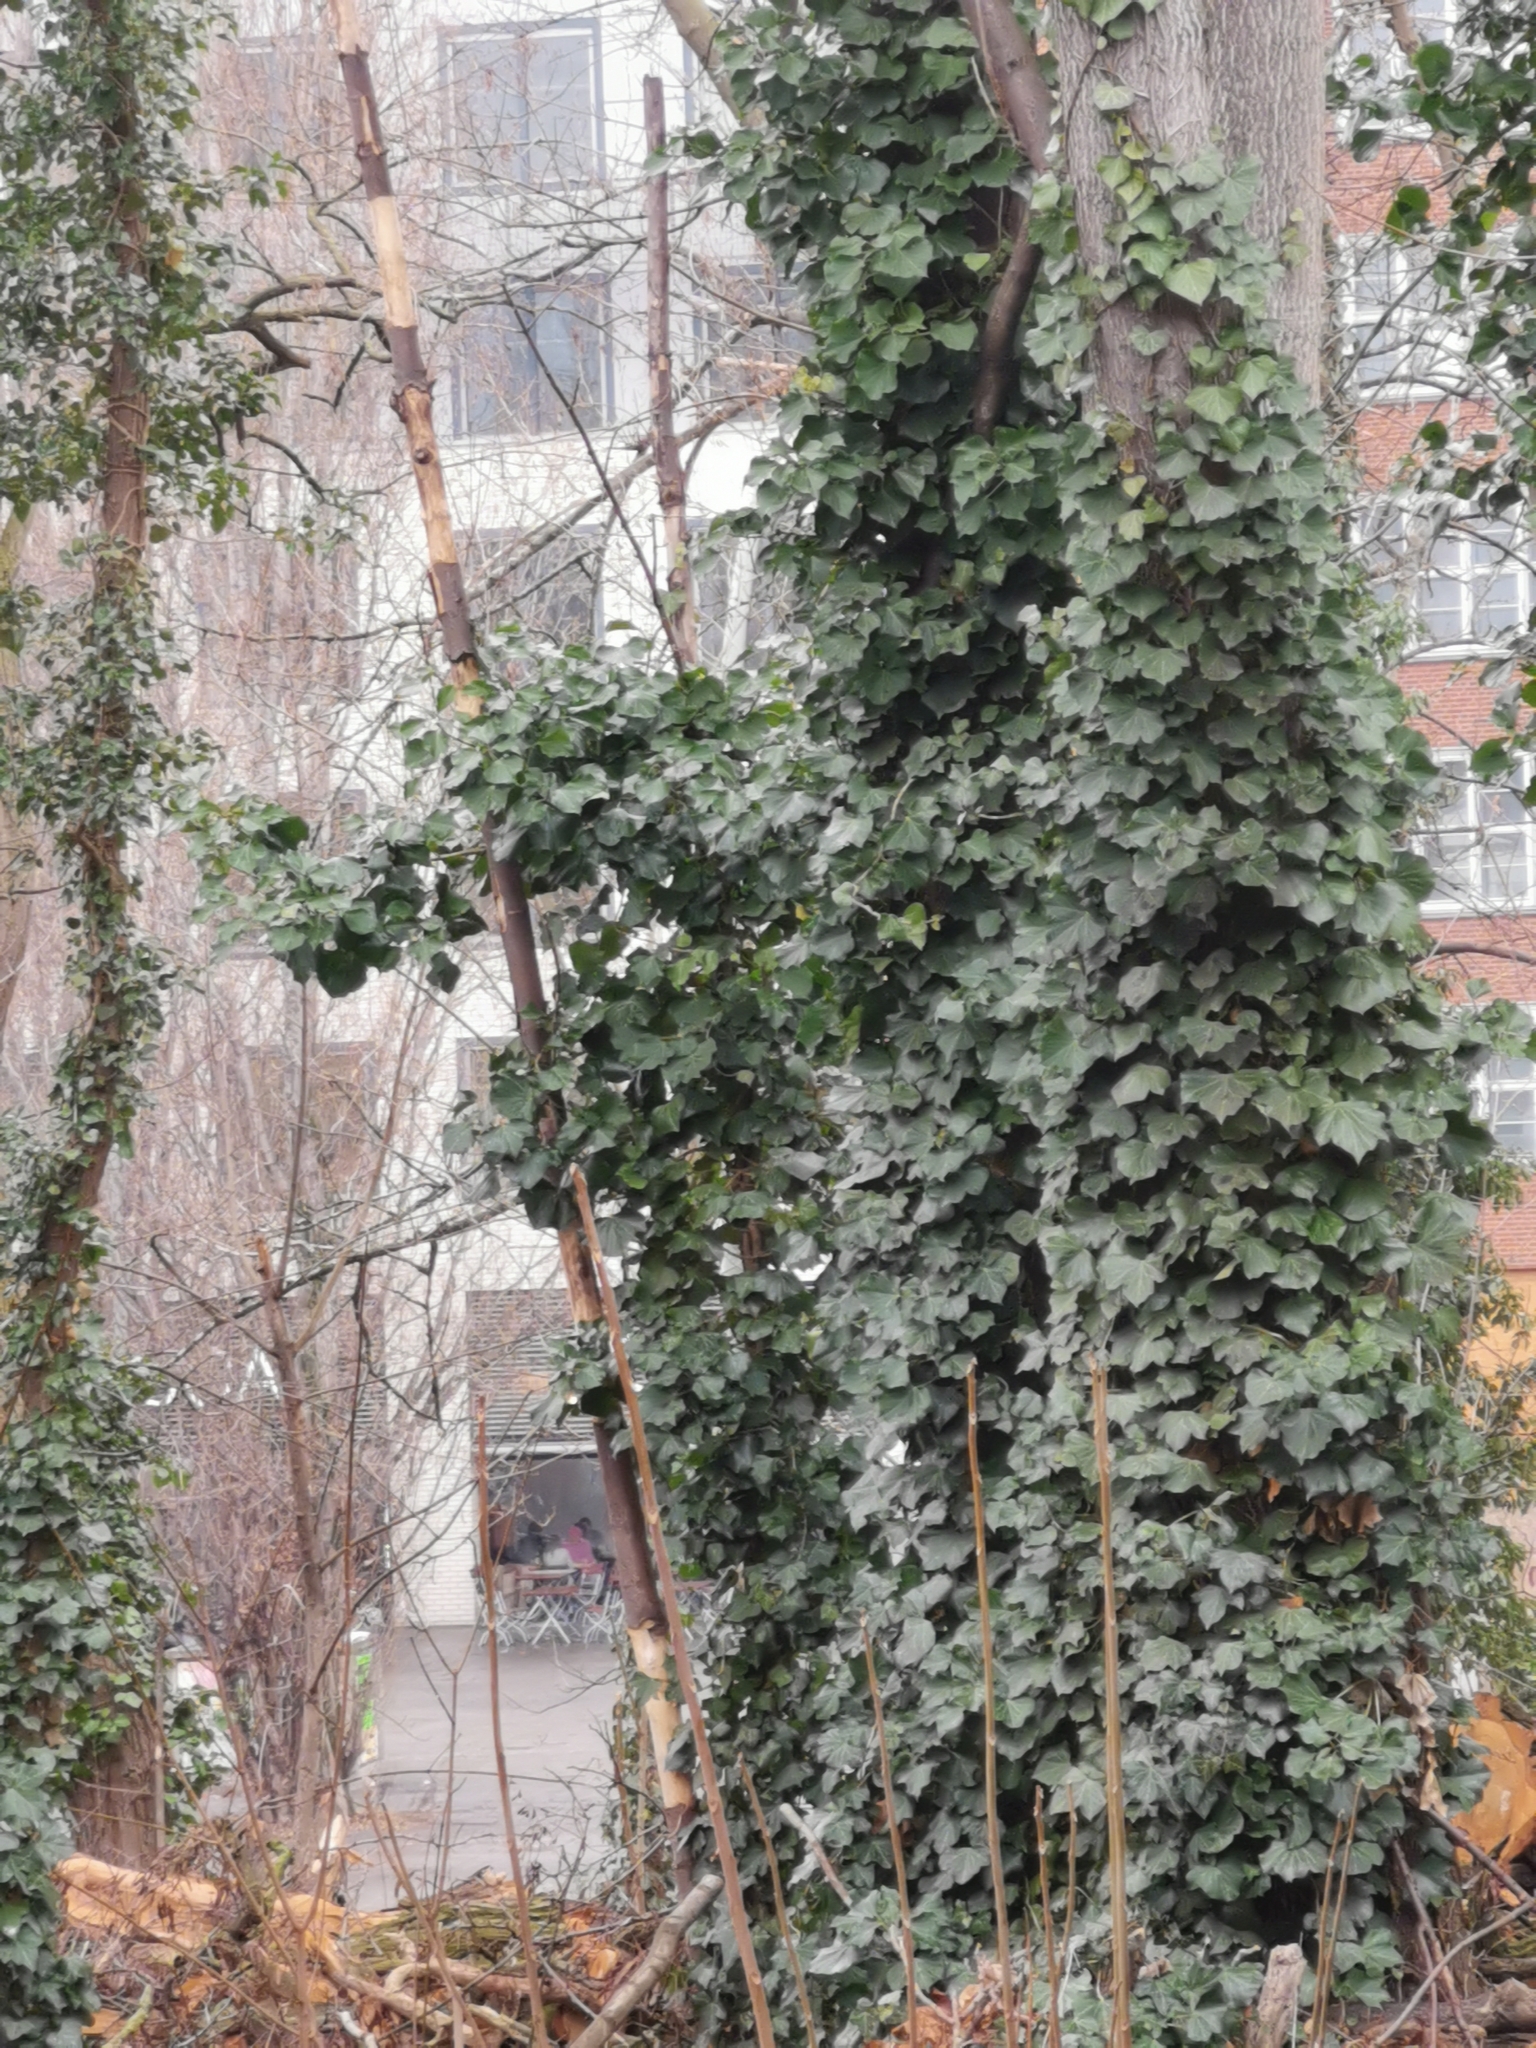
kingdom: Plantae
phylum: Tracheophyta
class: Magnoliopsida
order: Apiales
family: Araliaceae
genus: Hedera
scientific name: Hedera helix
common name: Ivy
